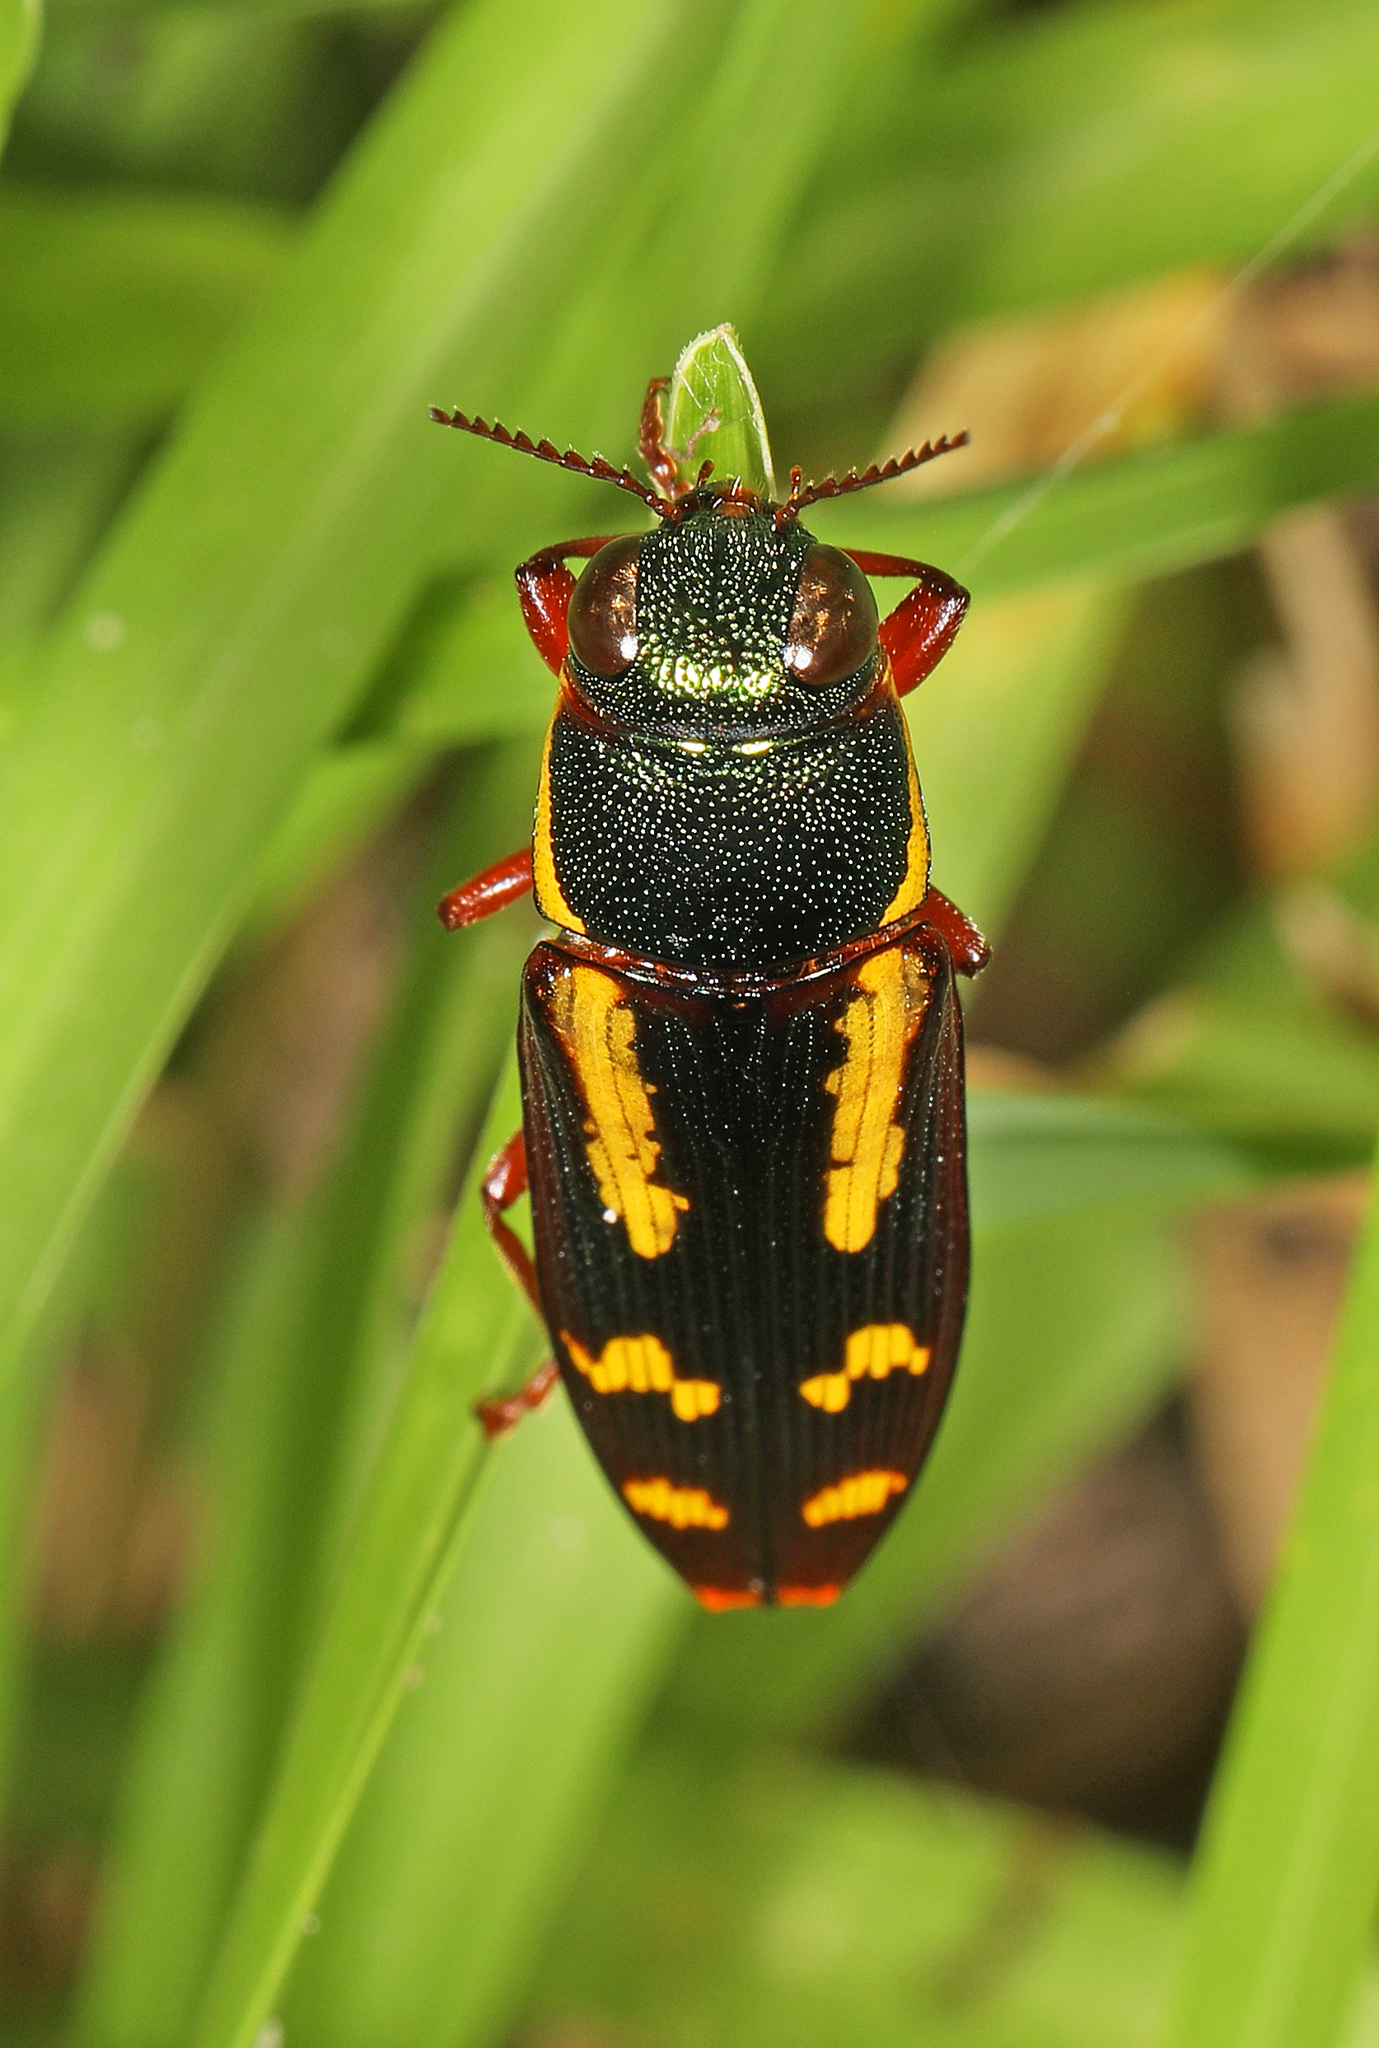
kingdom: Animalia
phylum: Arthropoda
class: Insecta
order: Coleoptera
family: Buprestidae
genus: Buprestis
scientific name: Buprestis rufipes
